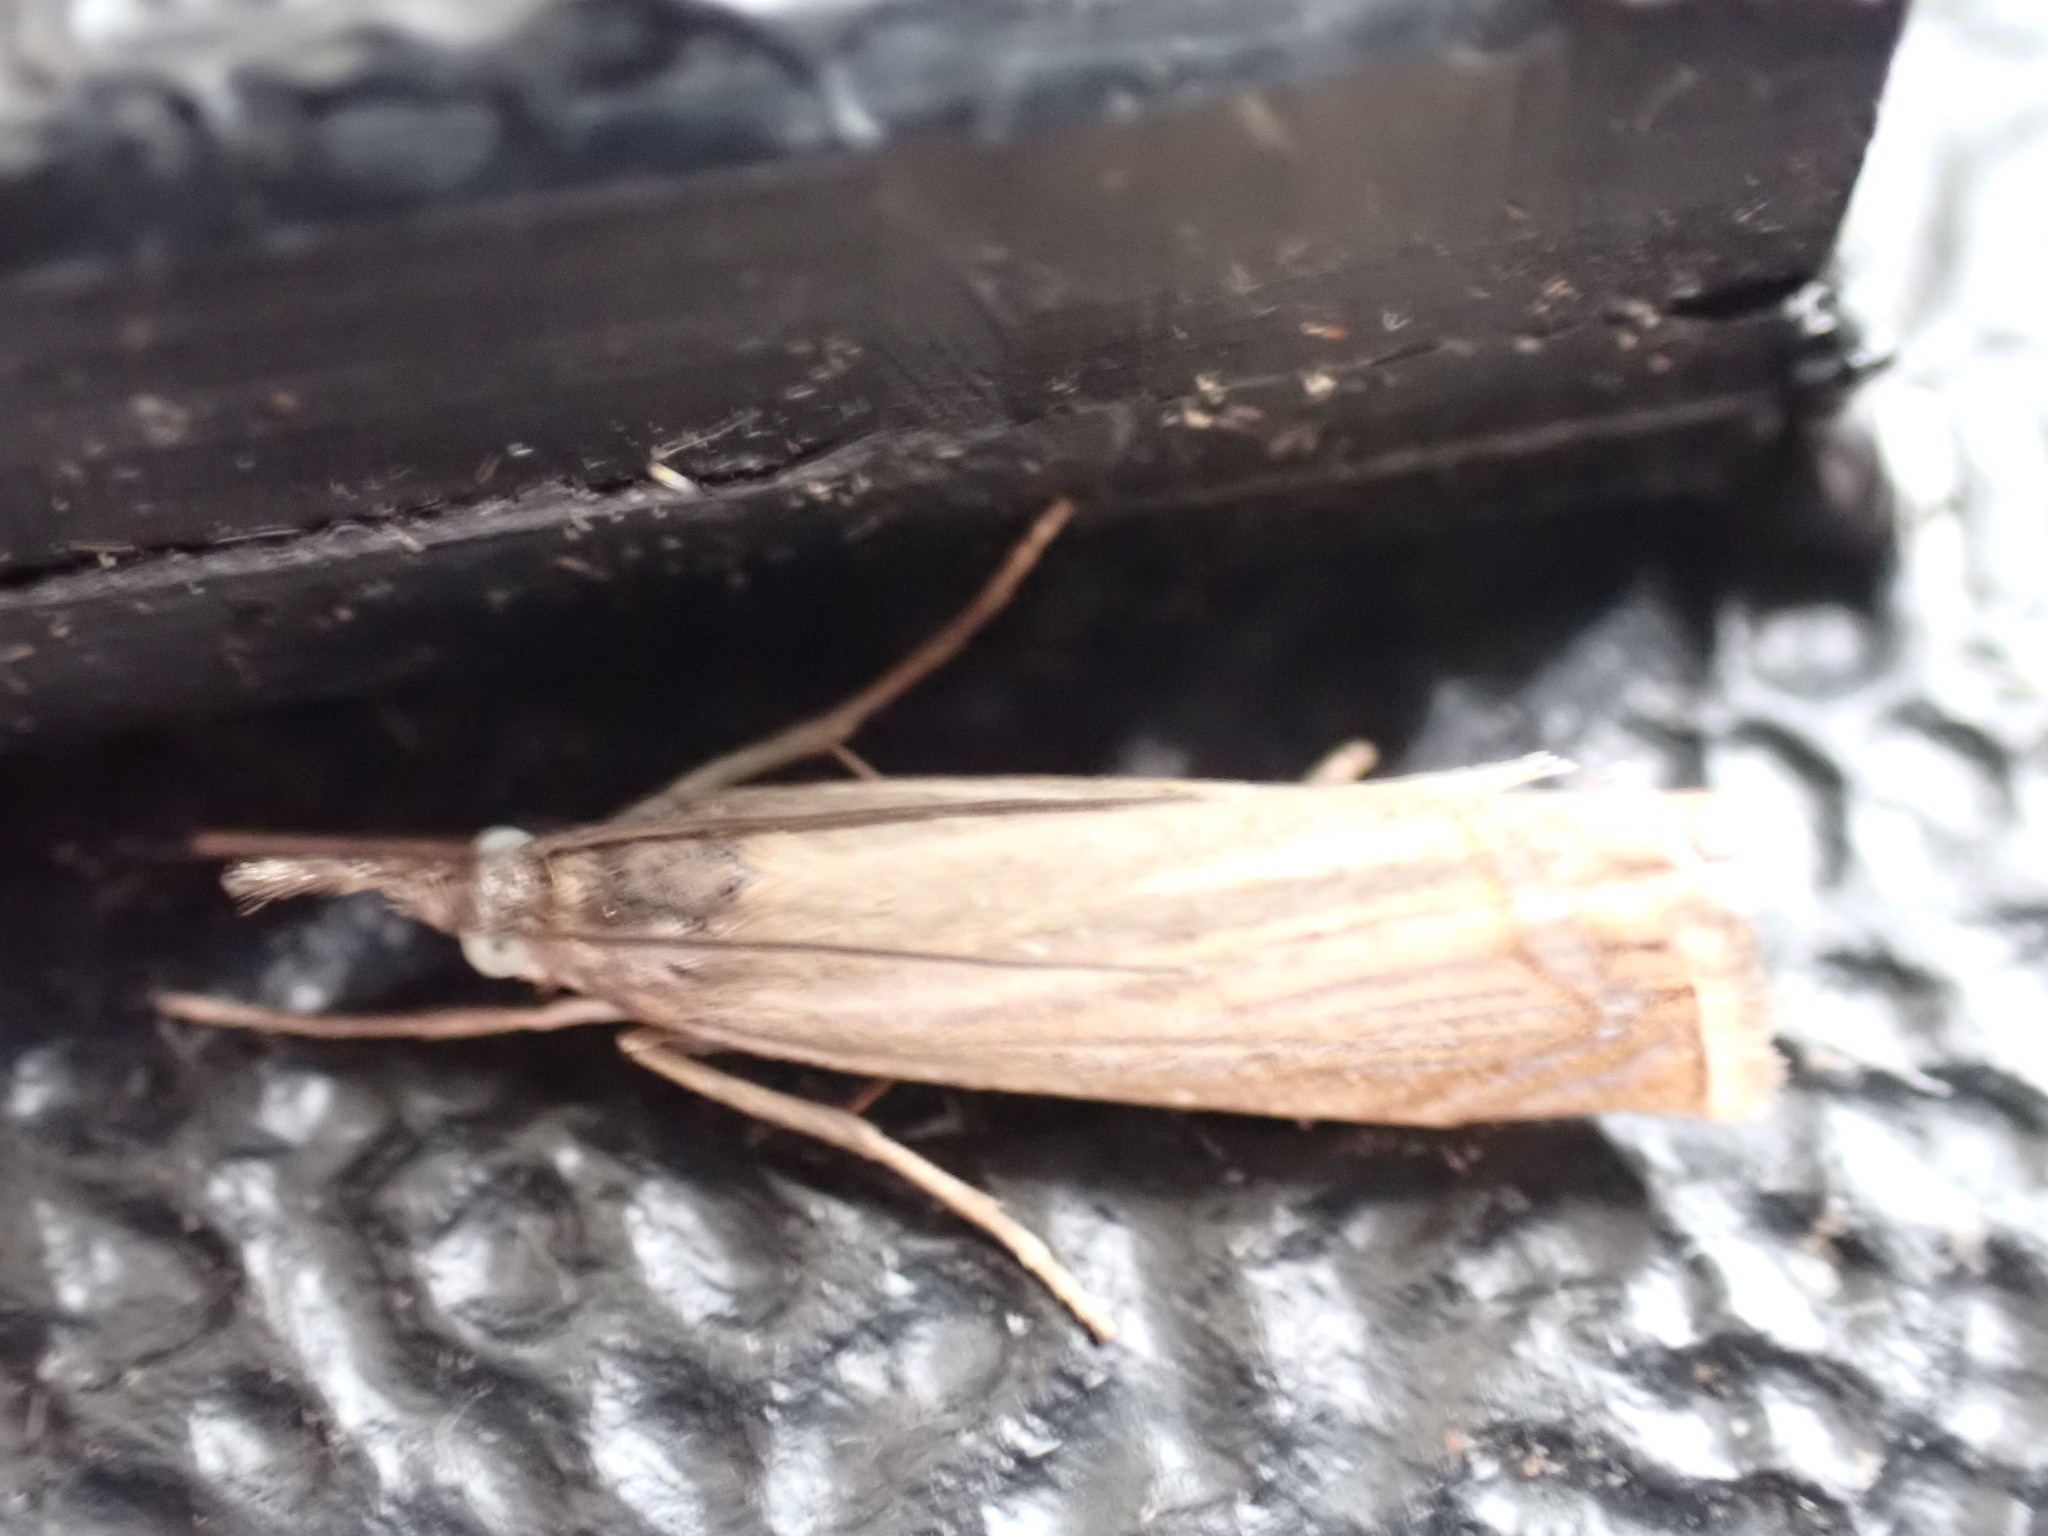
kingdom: Animalia
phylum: Arthropoda
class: Insecta
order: Lepidoptera
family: Crambidae
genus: Chrysoteuchia
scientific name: Chrysoteuchia culmella
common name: Garden grass-veneer
